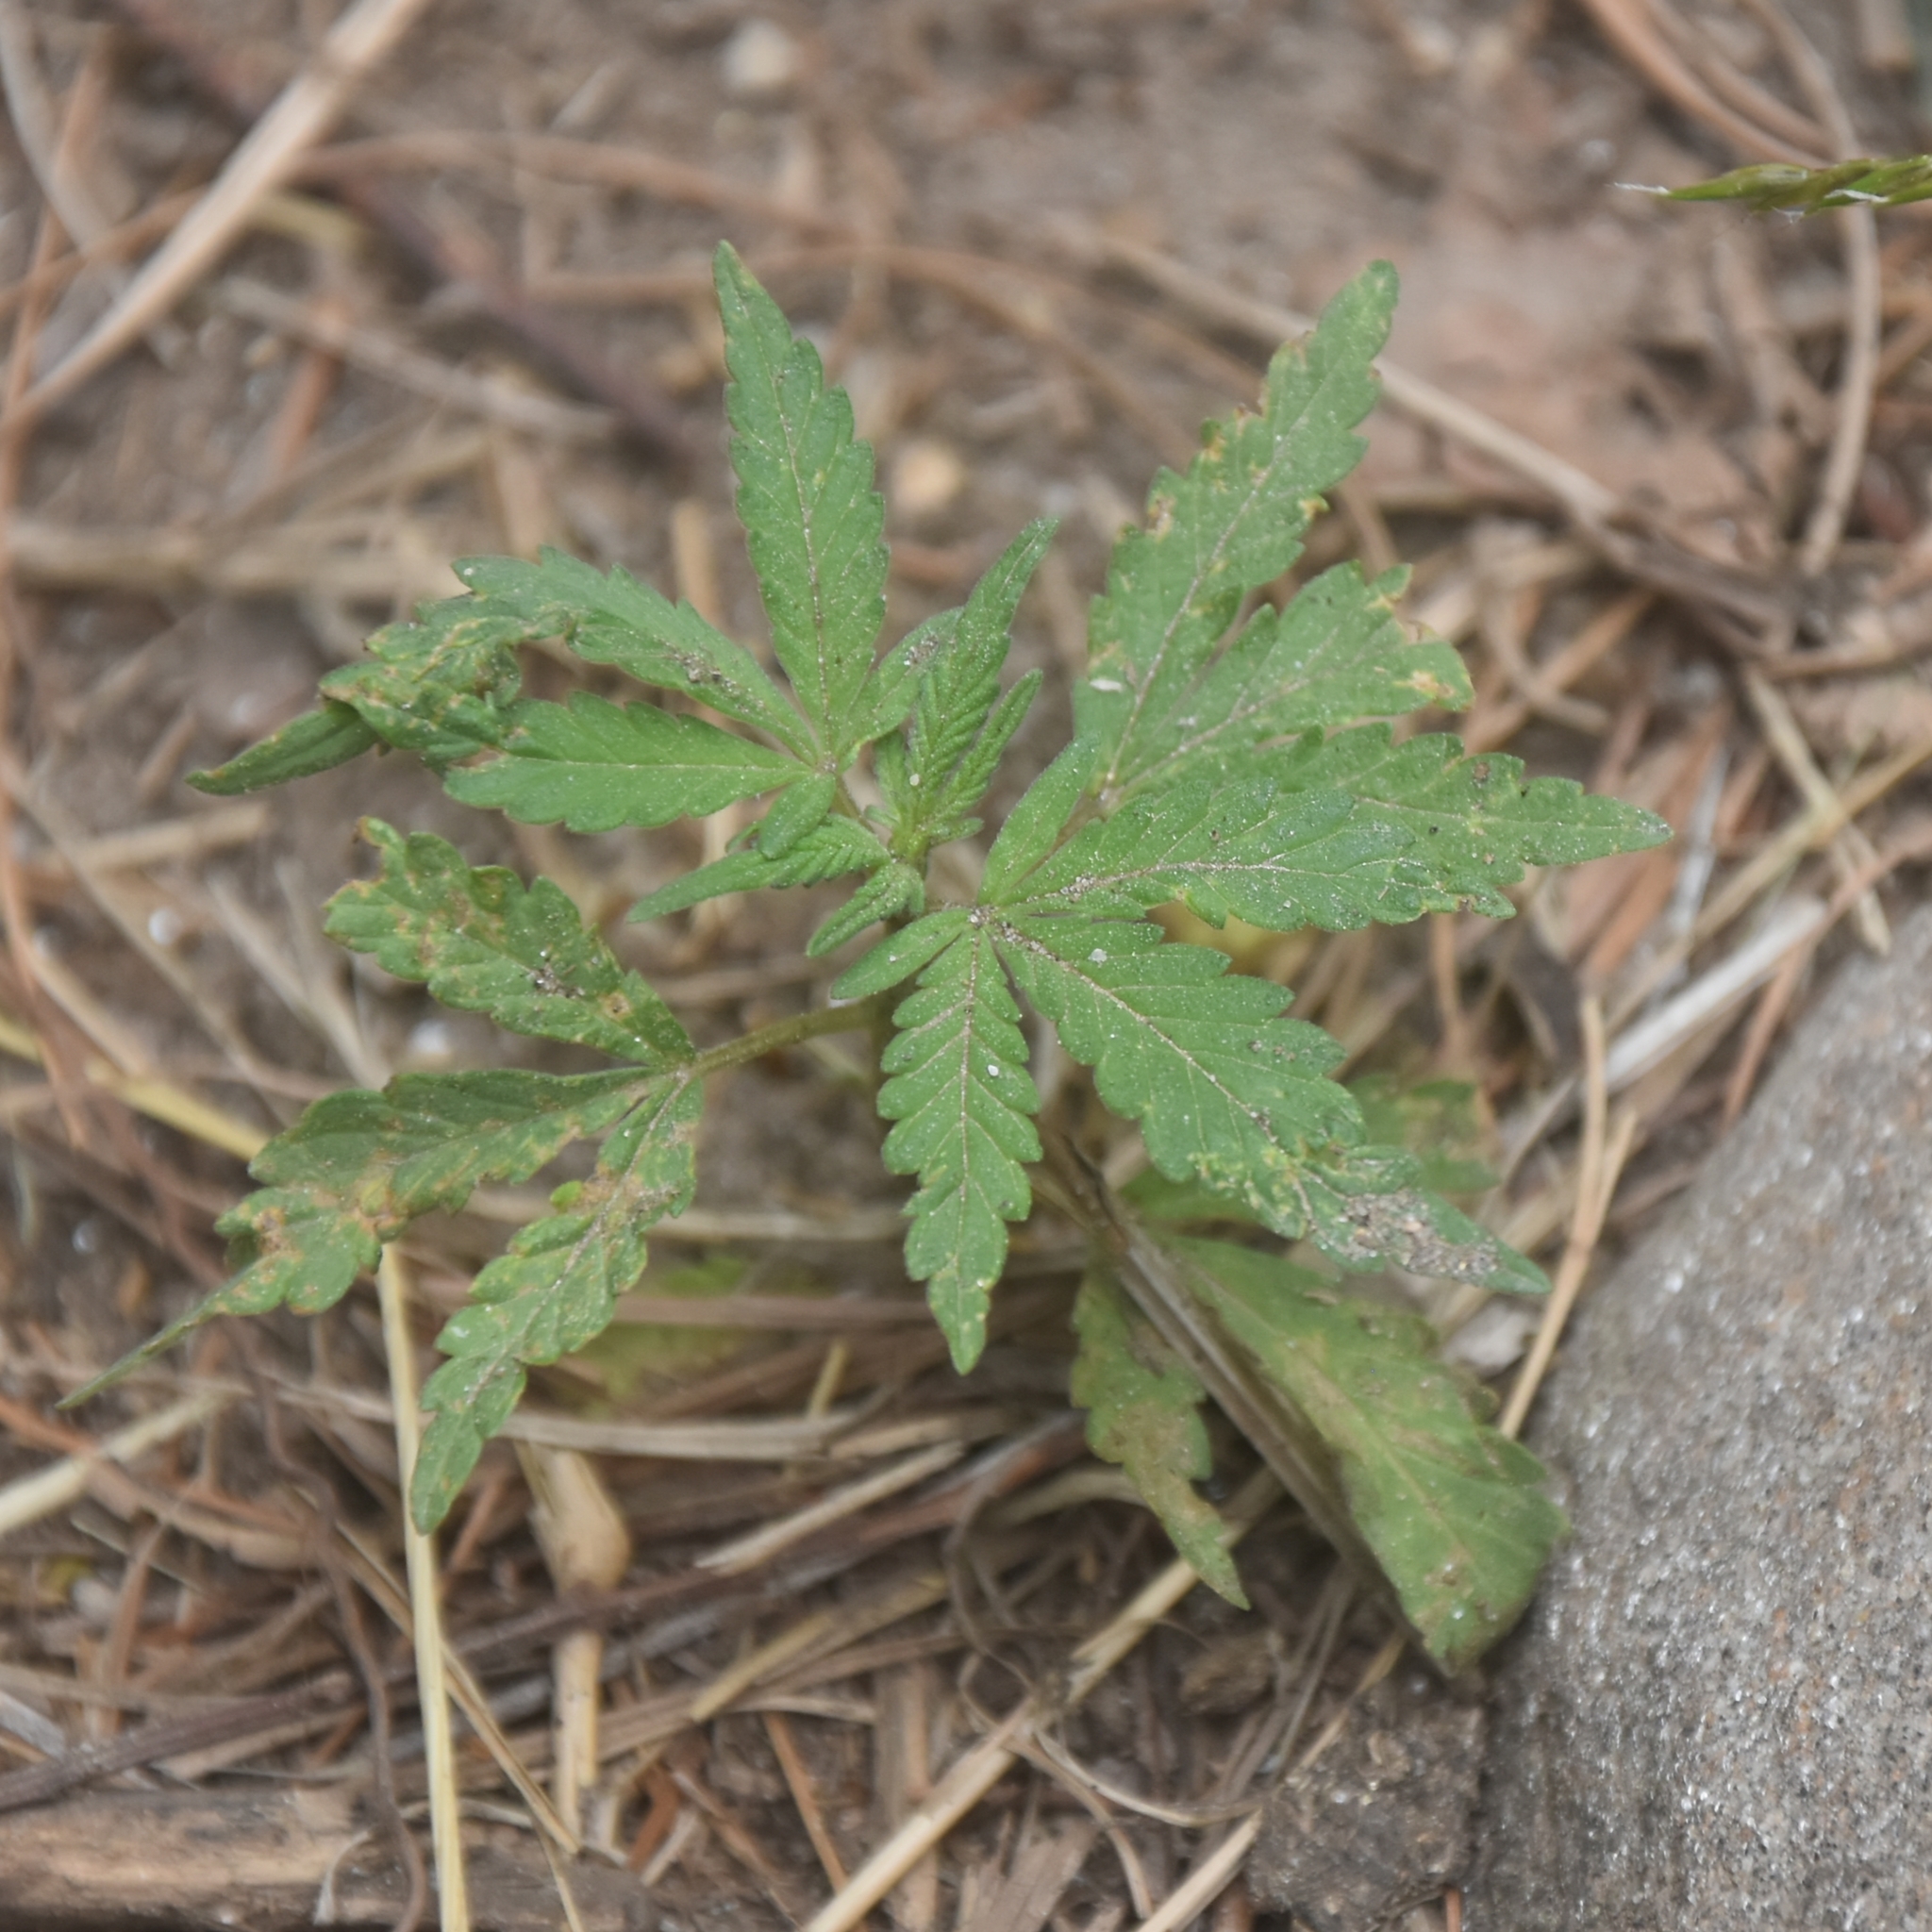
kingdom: Plantae
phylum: Tracheophyta
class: Magnoliopsida
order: Rosales
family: Cannabaceae
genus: Cannabis
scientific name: Cannabis sativa
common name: Hemp
